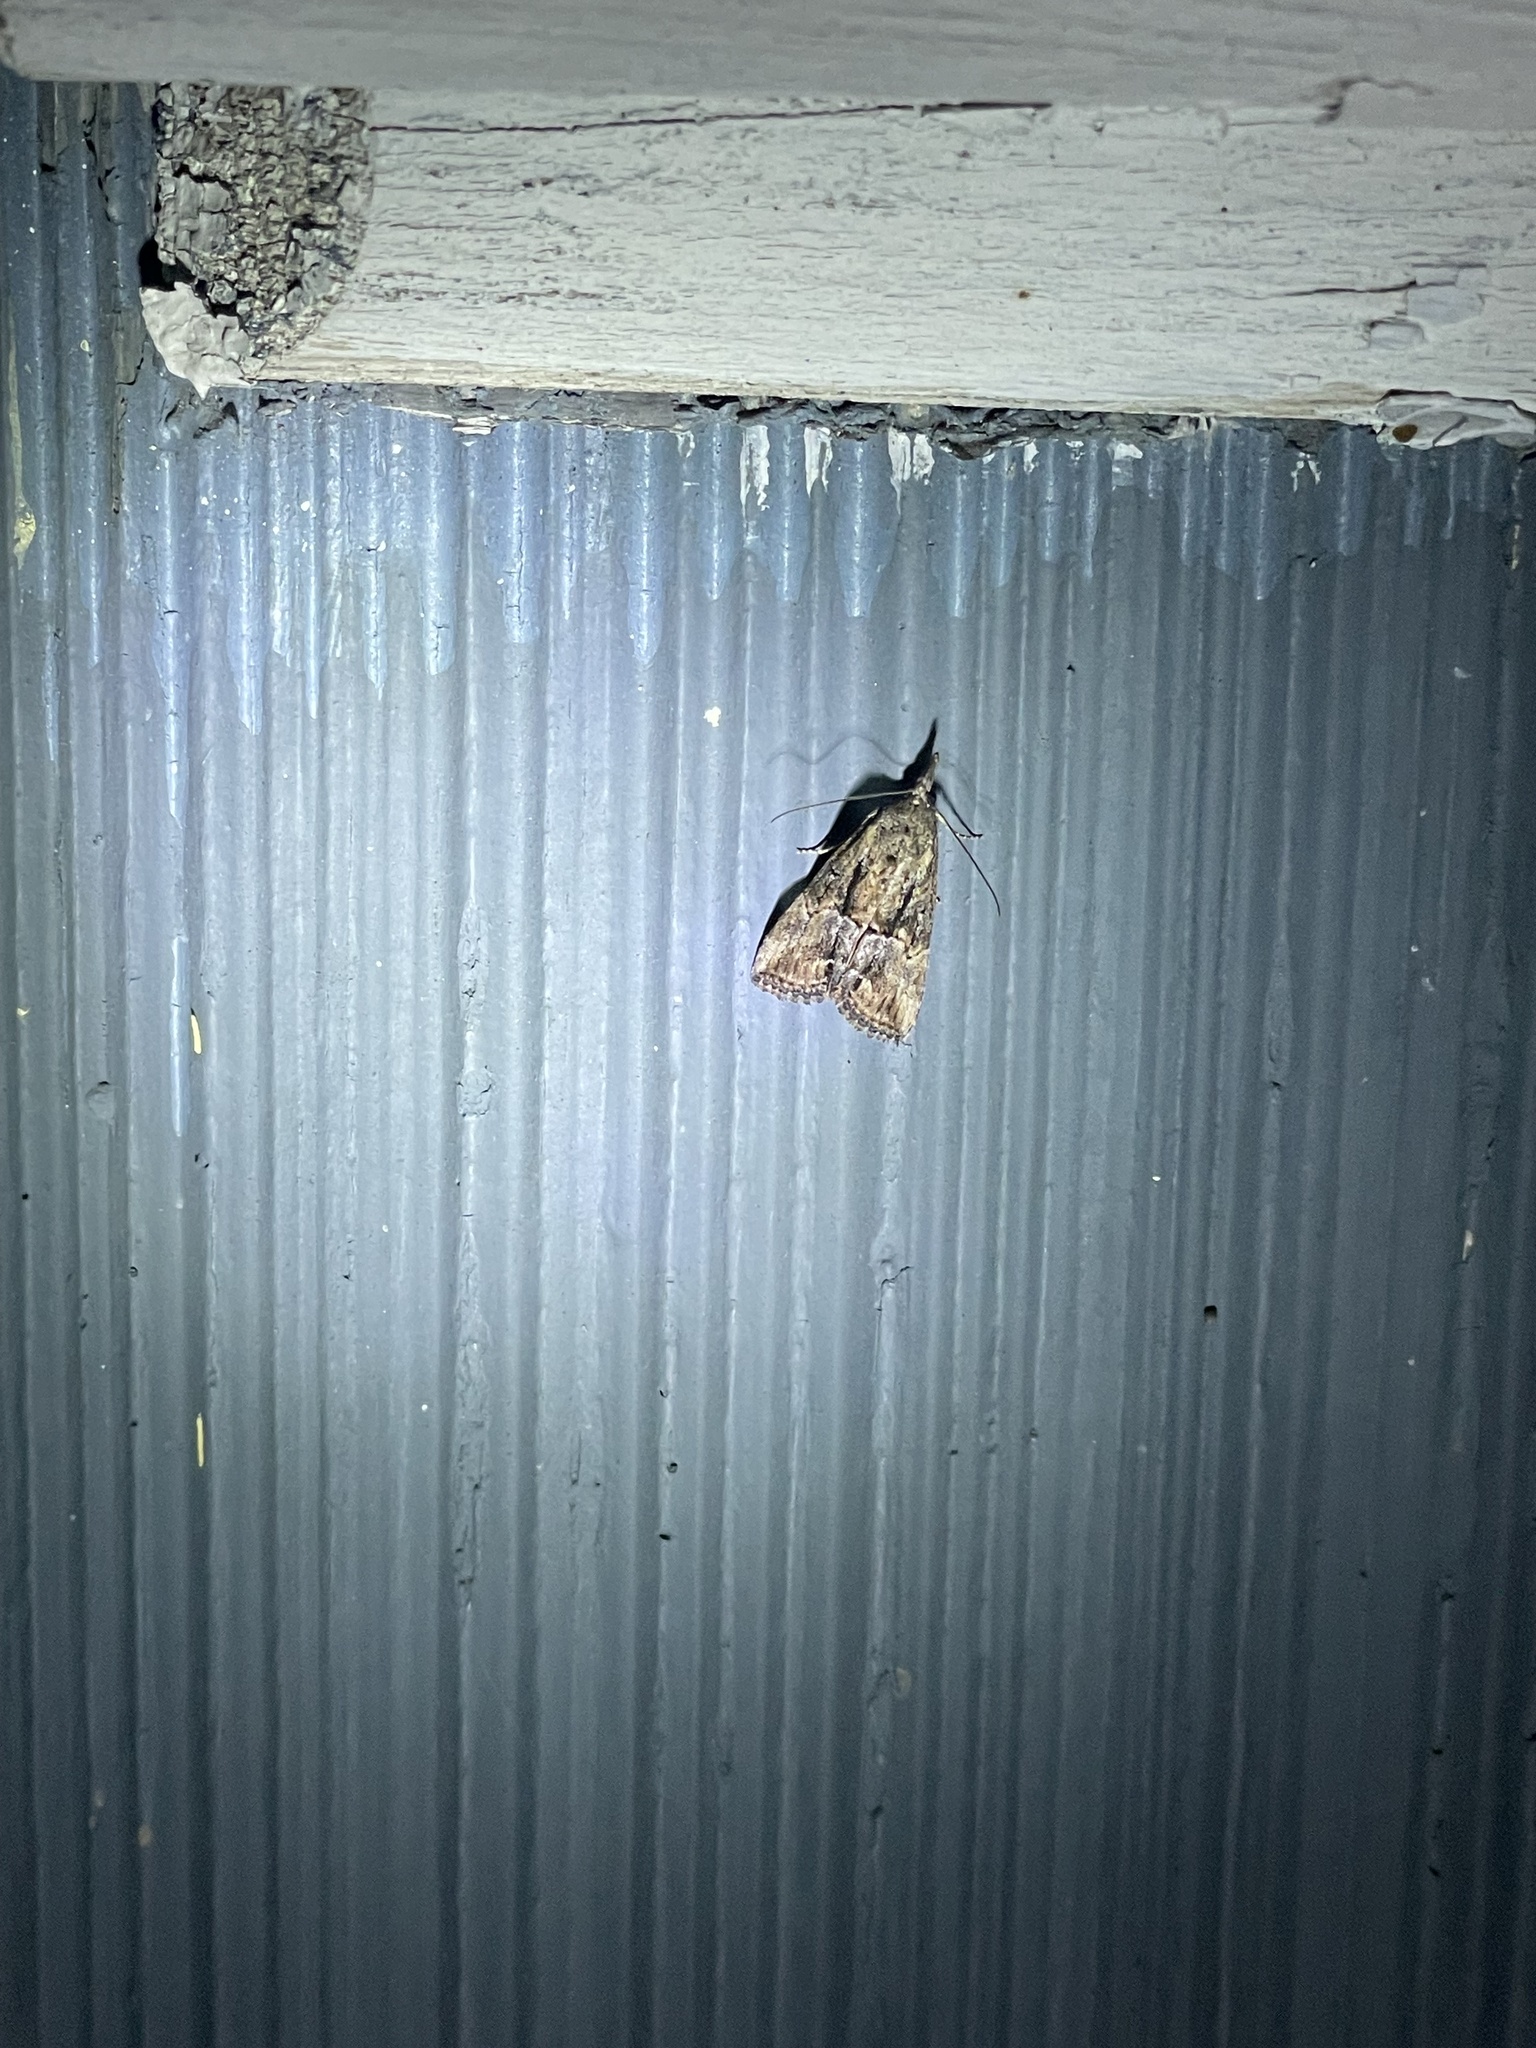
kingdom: Animalia
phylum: Arthropoda
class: Insecta
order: Lepidoptera
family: Erebidae
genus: Hypena
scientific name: Hypena scabra
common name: Green cloverworm
